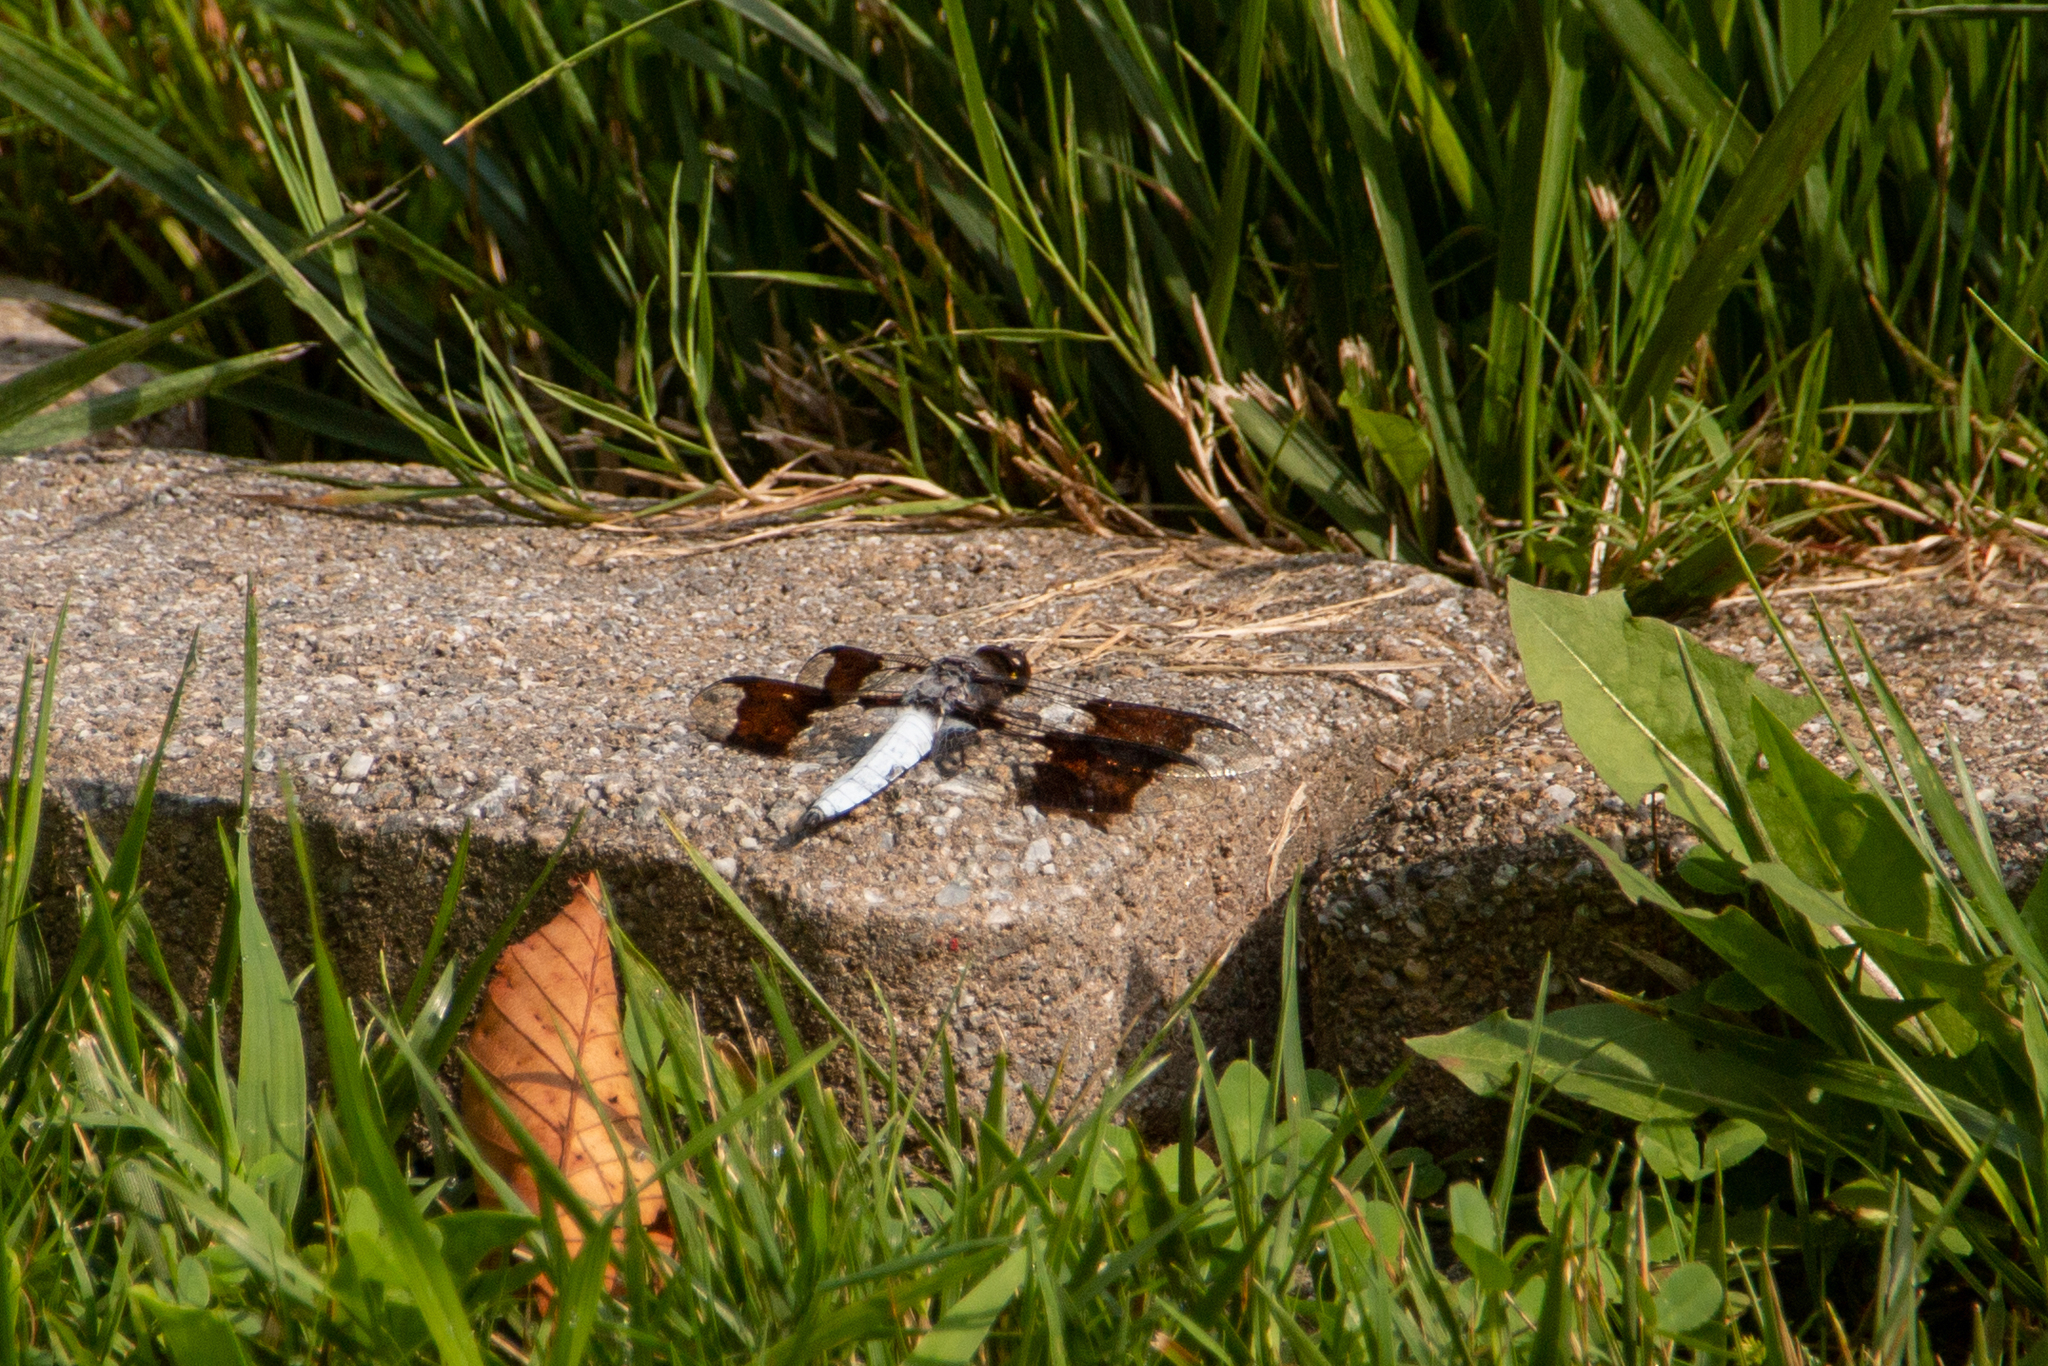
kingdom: Animalia
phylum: Arthropoda
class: Insecta
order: Odonata
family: Libellulidae
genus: Plathemis
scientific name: Plathemis lydia
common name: Common whitetail
